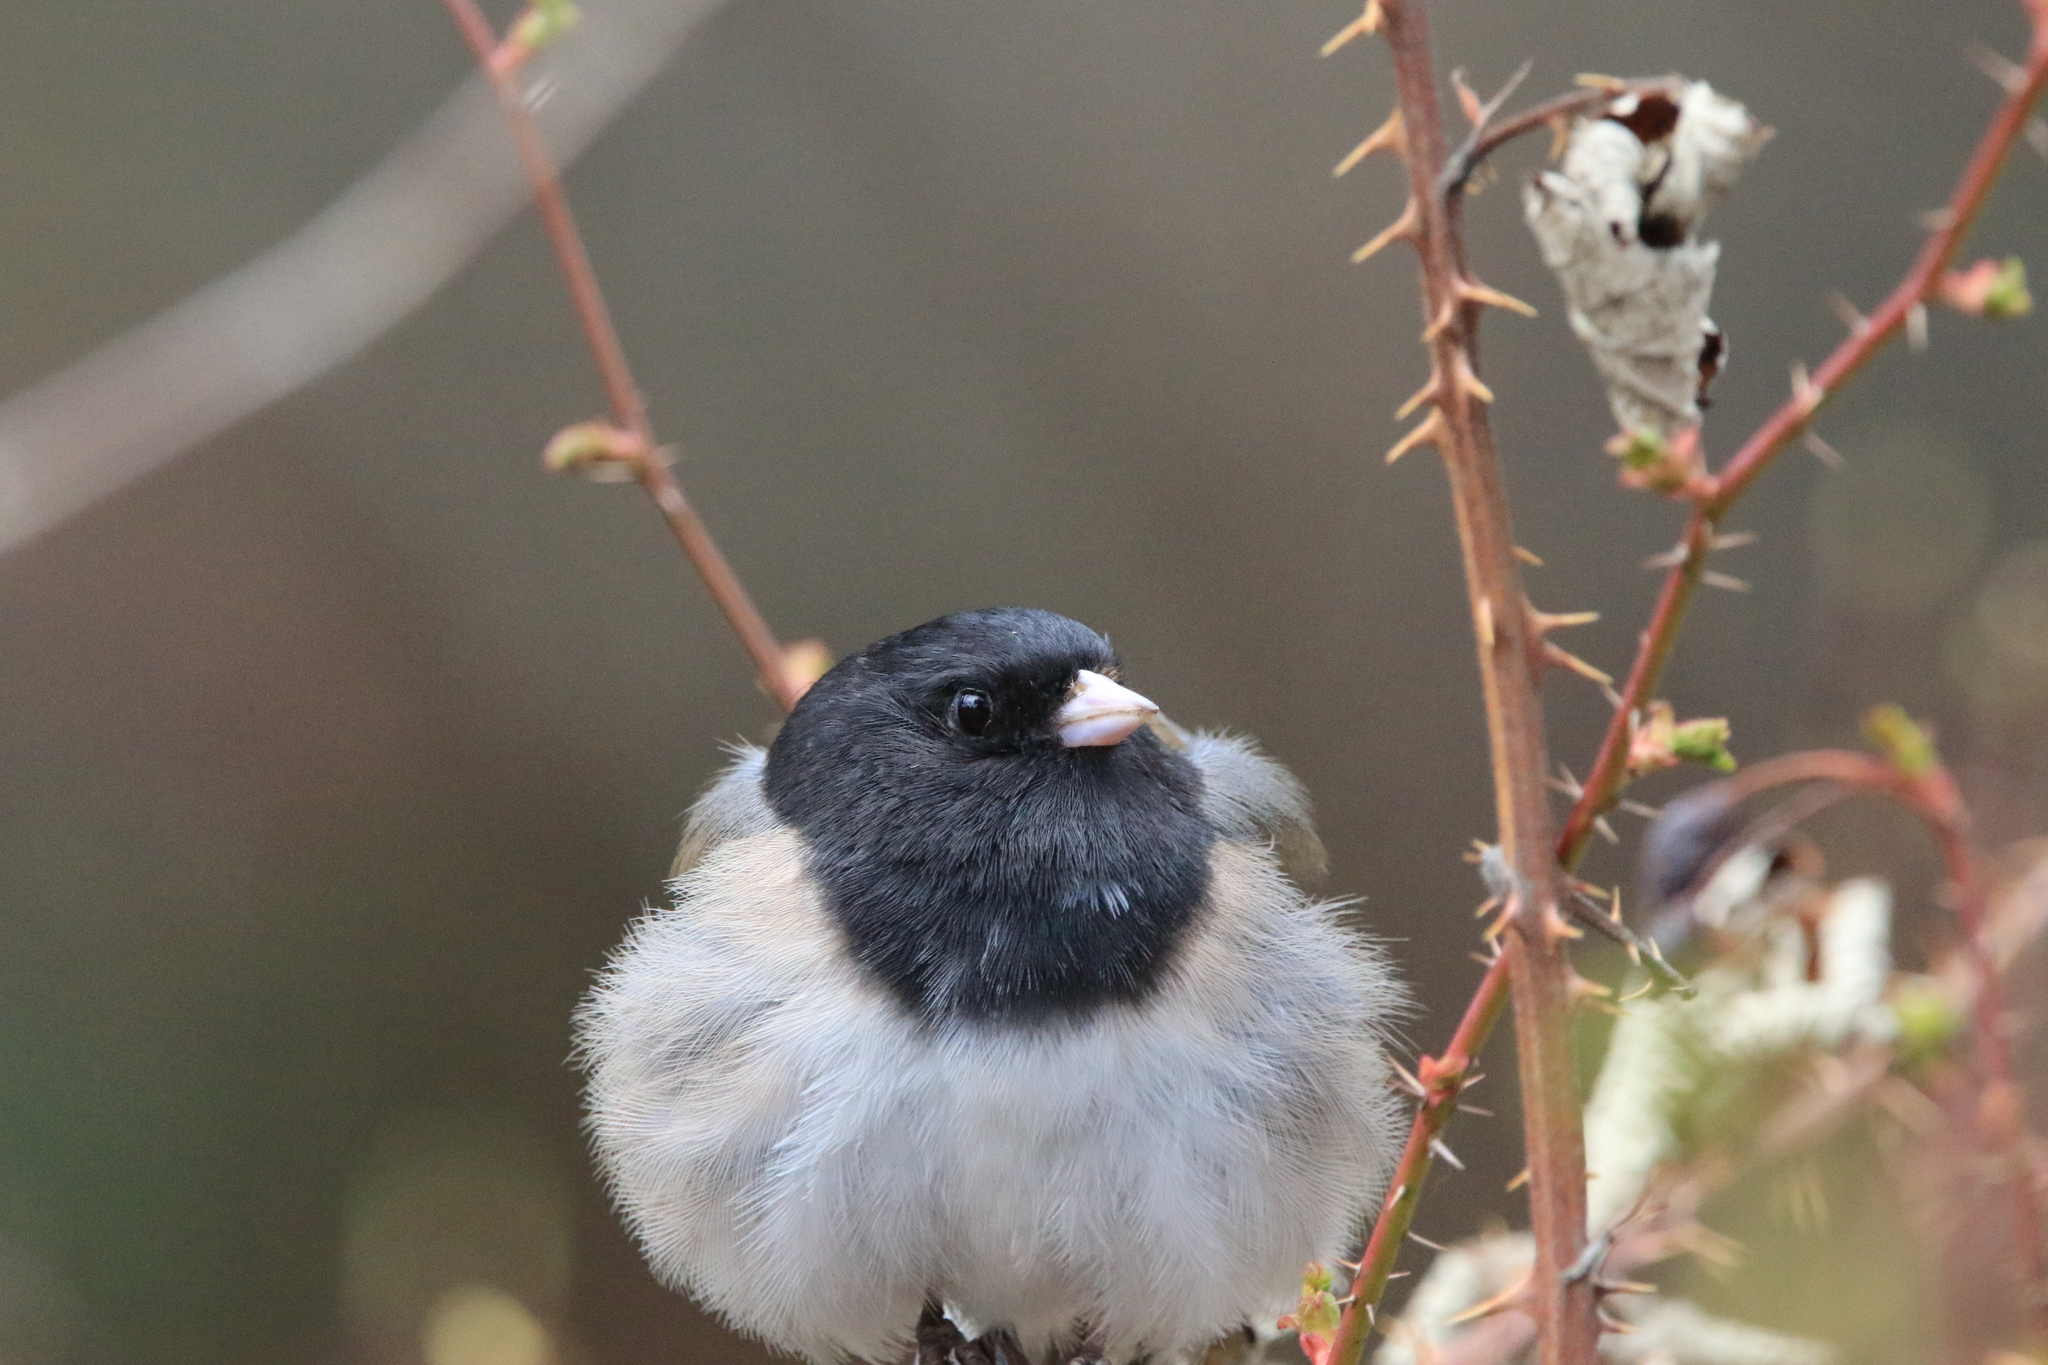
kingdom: Animalia
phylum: Chordata
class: Aves
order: Passeriformes
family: Passerellidae
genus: Junco
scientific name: Junco hyemalis
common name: Dark-eyed junco
